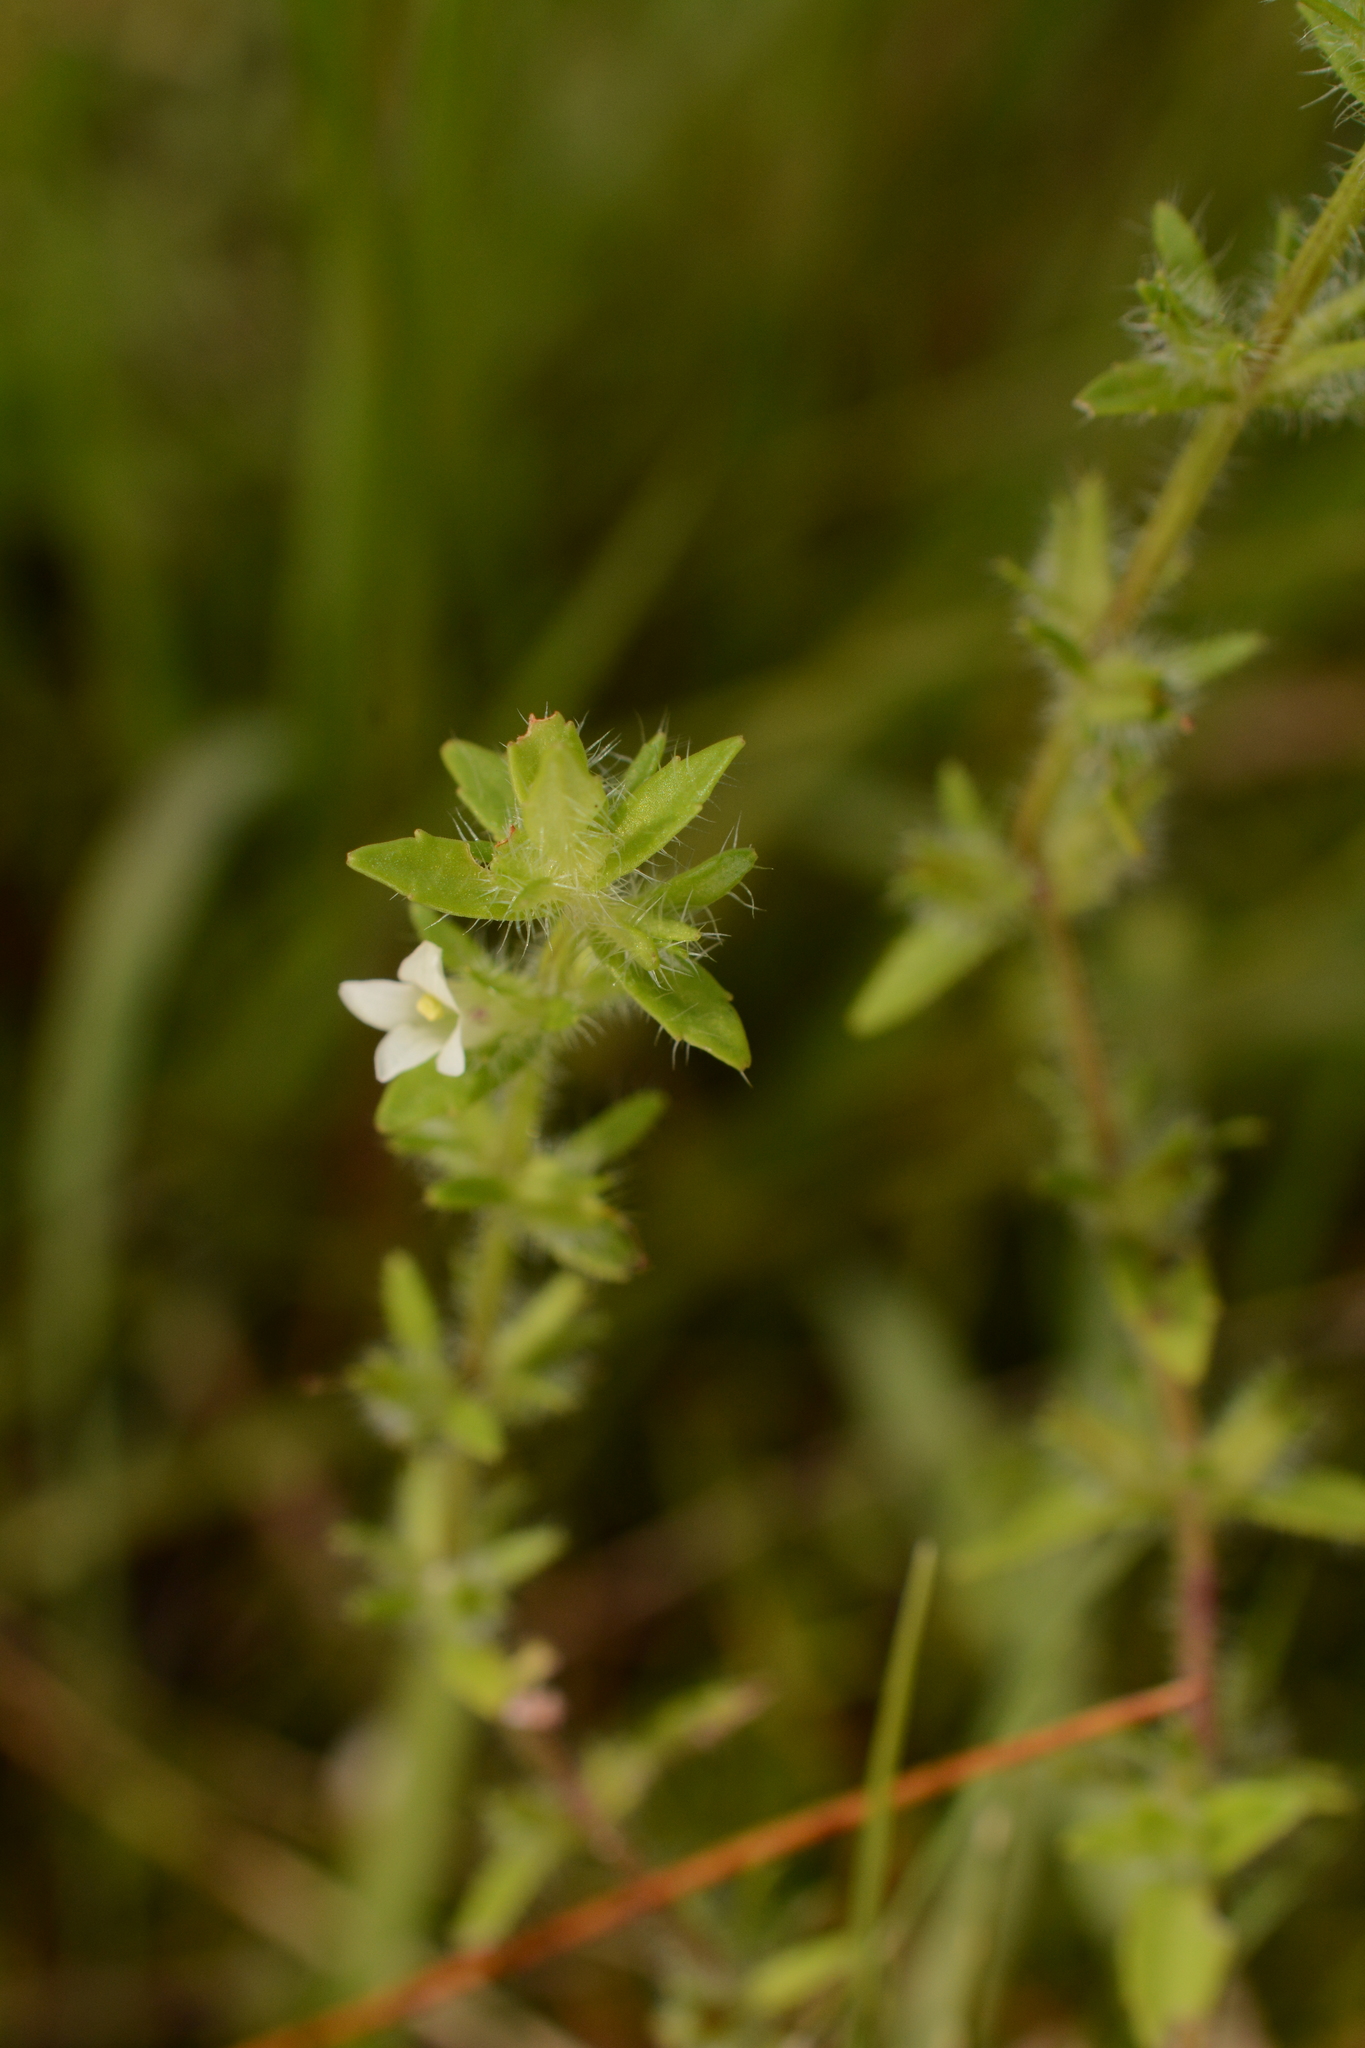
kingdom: Plantae
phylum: Tracheophyta
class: Magnoliopsida
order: Lamiales
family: Plantaginaceae
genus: Gratiola
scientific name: Gratiola pilosa
